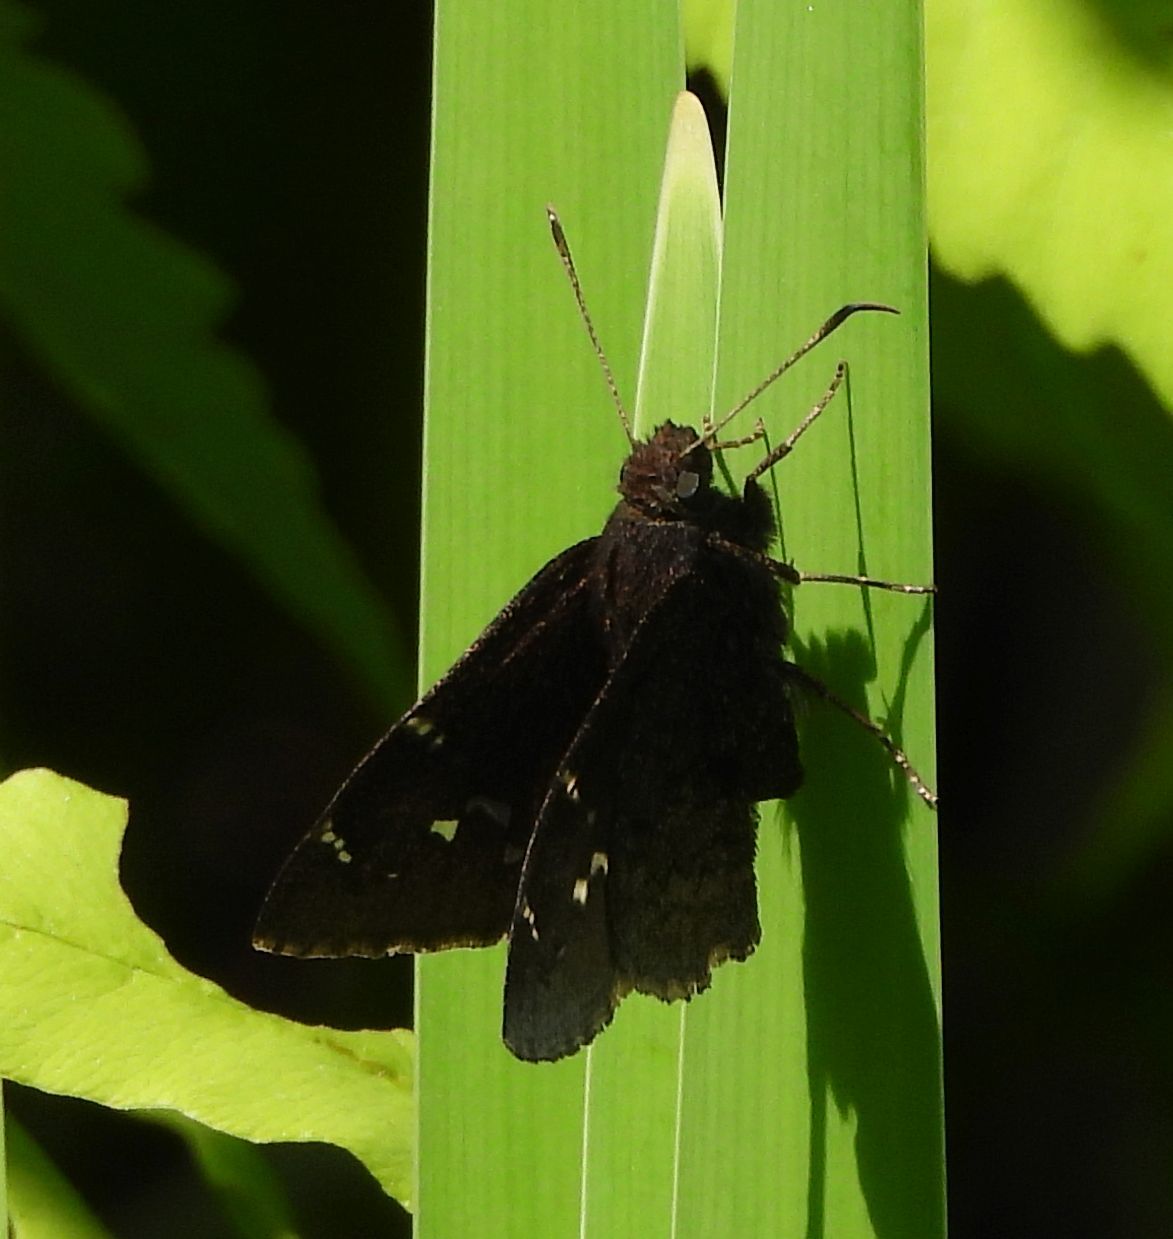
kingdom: Animalia
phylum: Arthropoda
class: Insecta
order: Lepidoptera
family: Hesperiidae
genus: Thorybes
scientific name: Thorybes pylades
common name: Northern cloudywing
